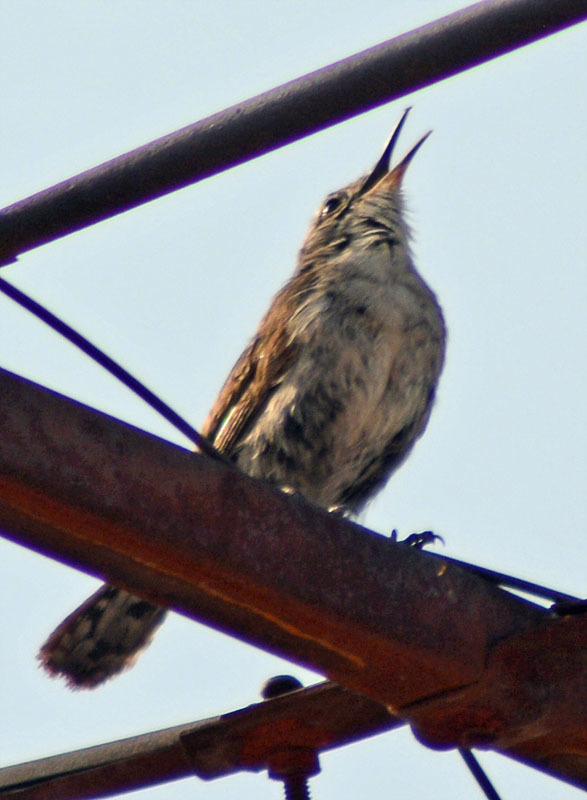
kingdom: Animalia
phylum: Chordata
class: Aves
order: Passeriformes
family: Troglodytidae
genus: Thryomanes
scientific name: Thryomanes bewickii
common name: Bewick's wren
